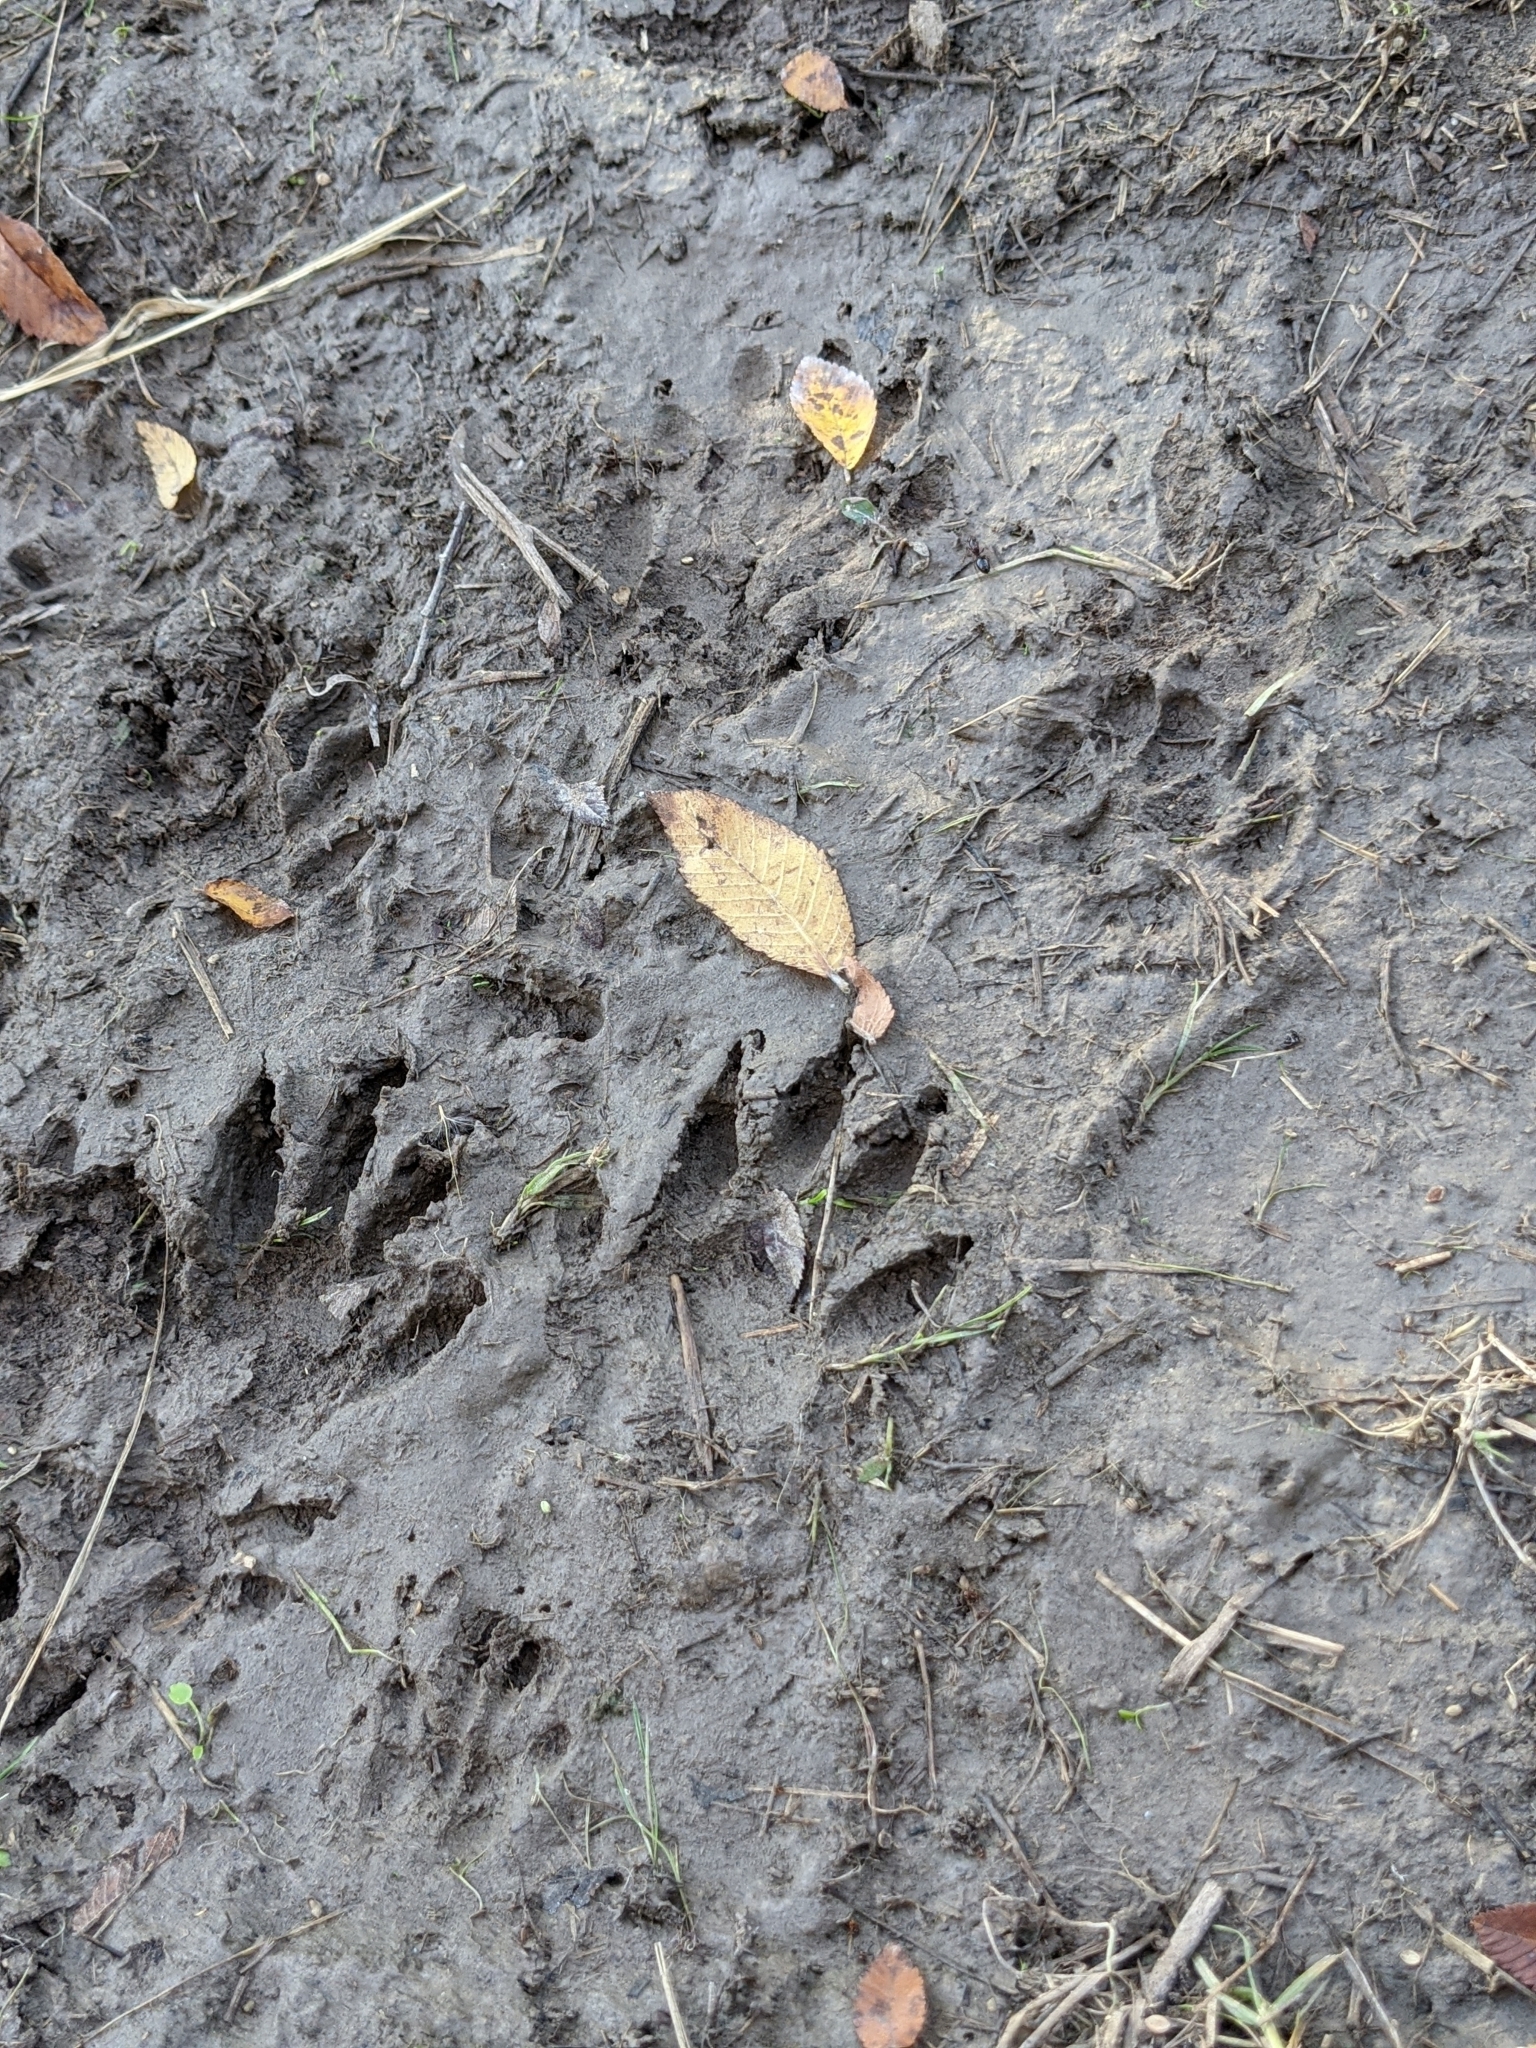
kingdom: Animalia
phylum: Chordata
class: Mammalia
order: Carnivora
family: Procyonidae
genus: Procyon
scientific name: Procyon lotor
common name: Raccoon
